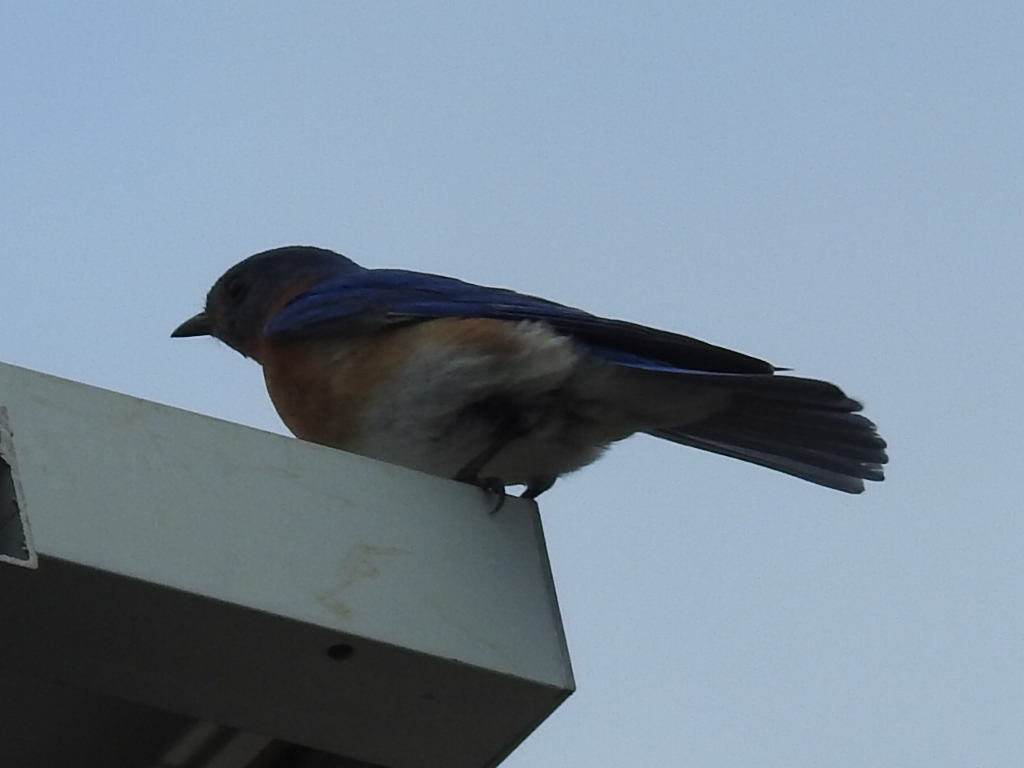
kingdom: Animalia
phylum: Chordata
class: Aves
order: Passeriformes
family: Turdidae
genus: Sialia
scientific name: Sialia sialis
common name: Eastern bluebird
